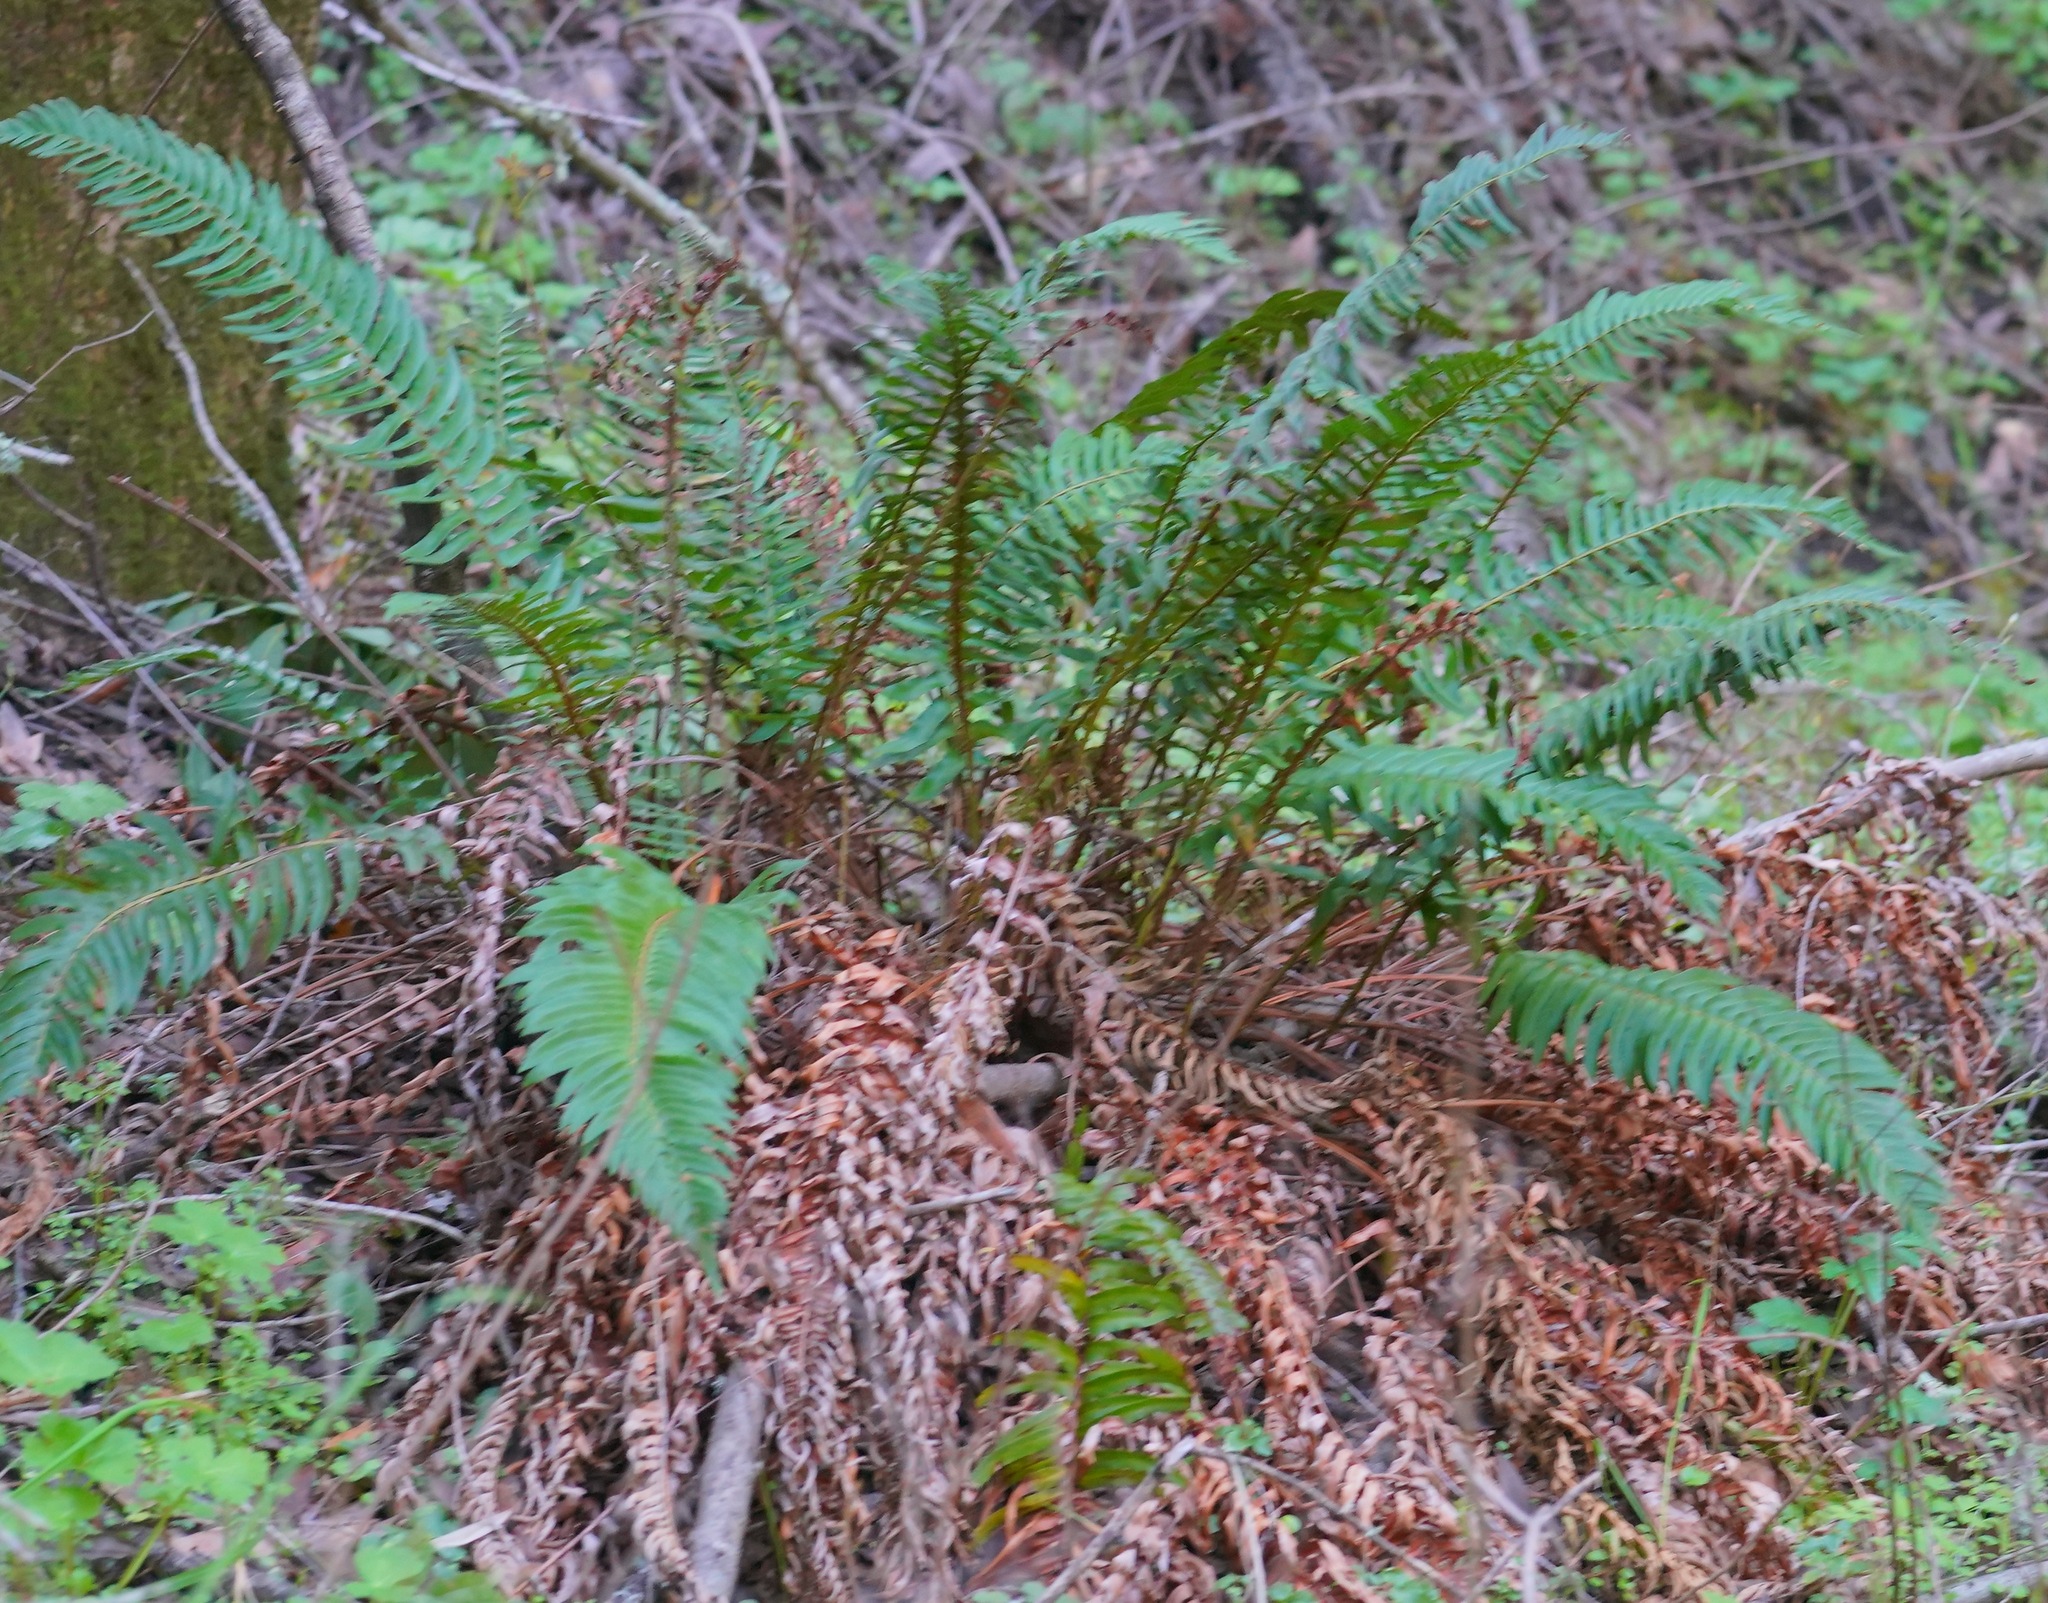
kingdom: Plantae
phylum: Tracheophyta
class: Polypodiopsida
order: Polypodiales
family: Dryopteridaceae
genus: Polystichum
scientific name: Polystichum munitum
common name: Western sword-fern
